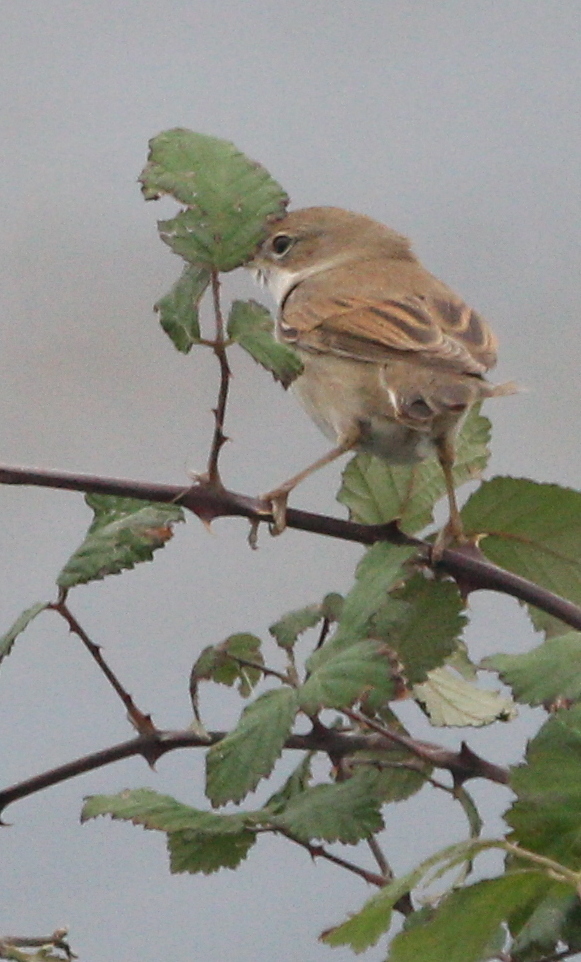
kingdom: Animalia
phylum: Chordata
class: Aves
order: Passeriformes
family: Sylviidae
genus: Sylvia
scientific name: Sylvia communis
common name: Common whitethroat
